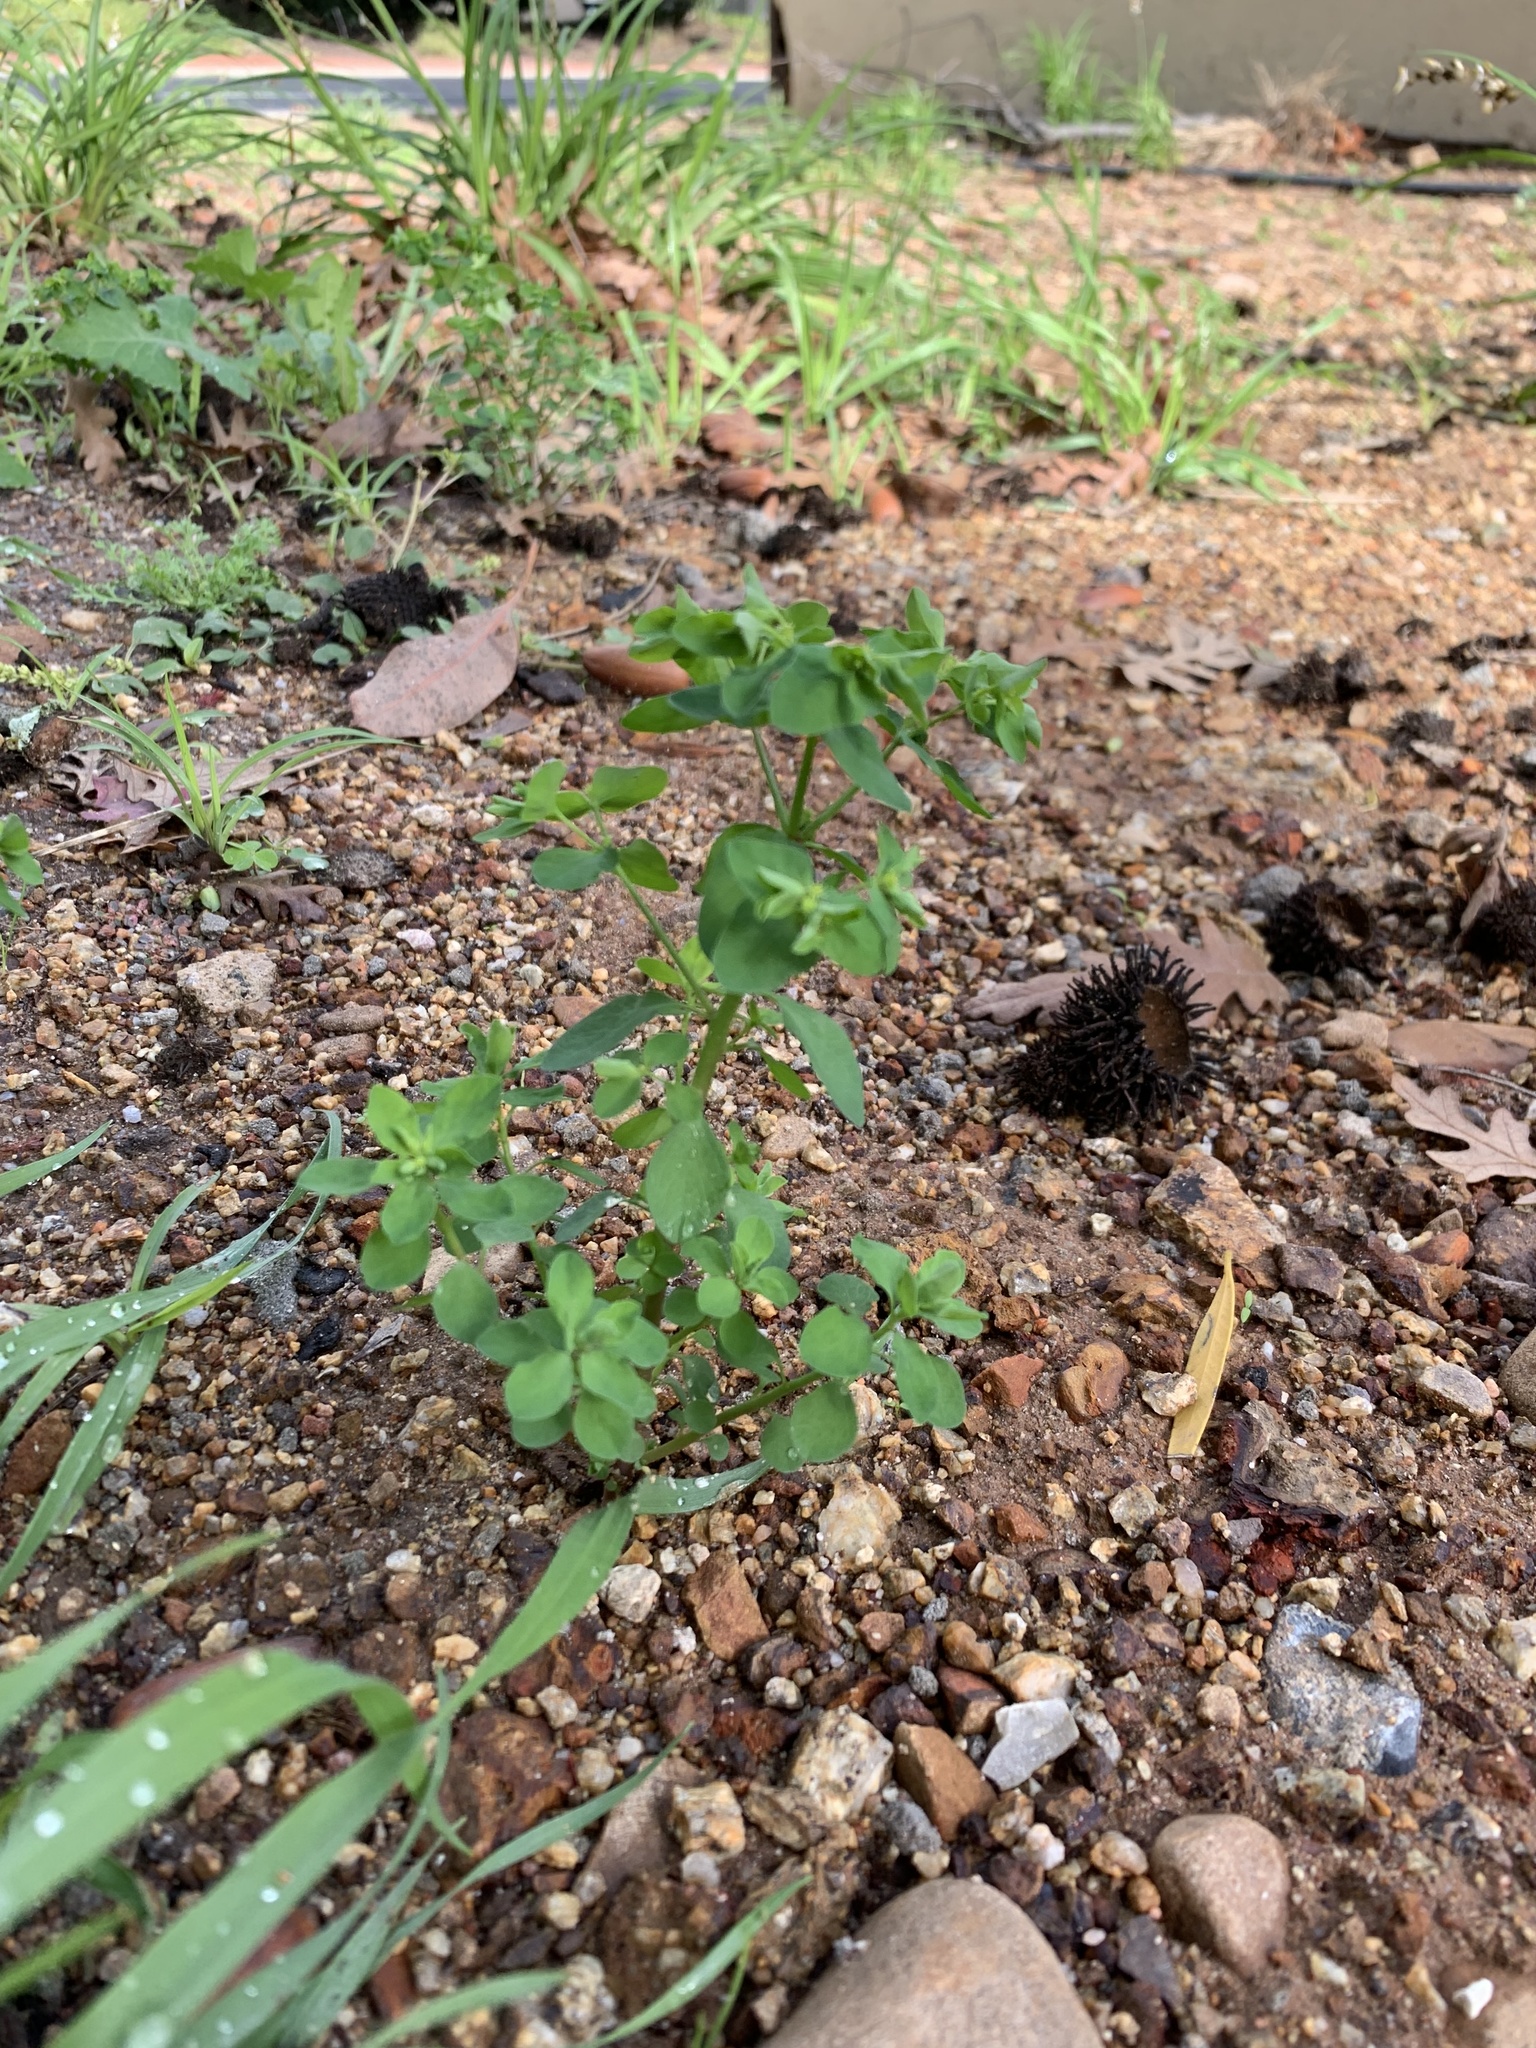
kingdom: Plantae
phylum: Tracheophyta
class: Magnoliopsida
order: Malpighiales
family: Euphorbiaceae
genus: Euphorbia
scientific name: Euphorbia peplus
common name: Petty spurge
